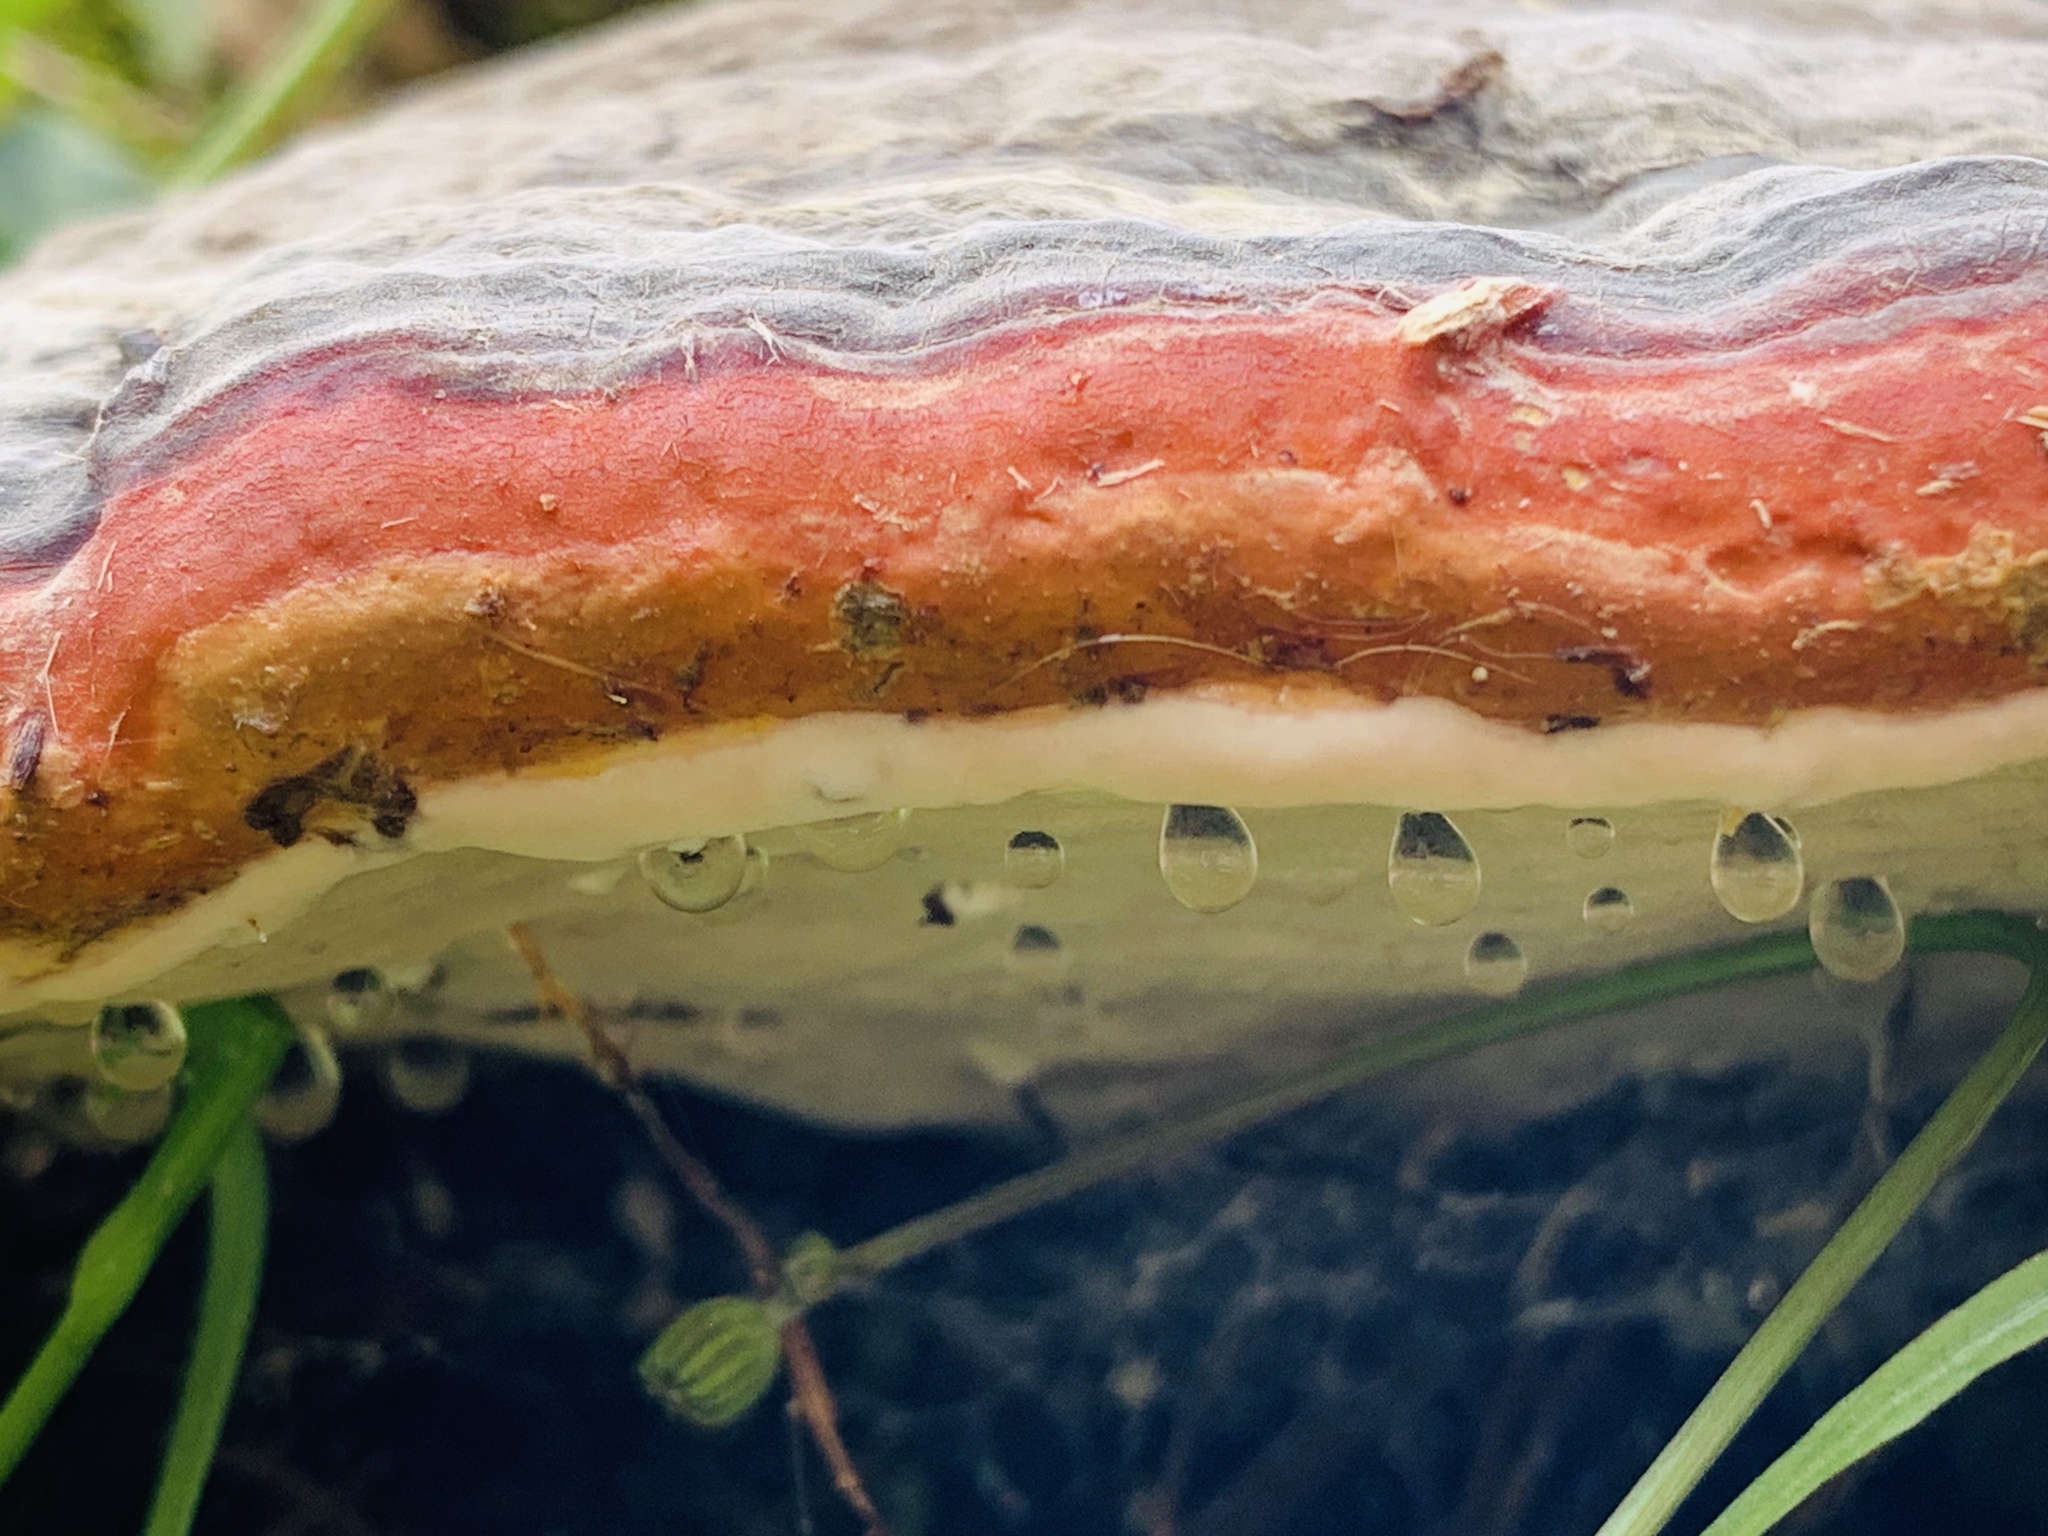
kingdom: Fungi
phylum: Basidiomycota
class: Agaricomycetes
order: Polyporales
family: Fomitopsidaceae
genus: Fomitopsis
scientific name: Fomitopsis pinicola
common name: Red-belted bracket
